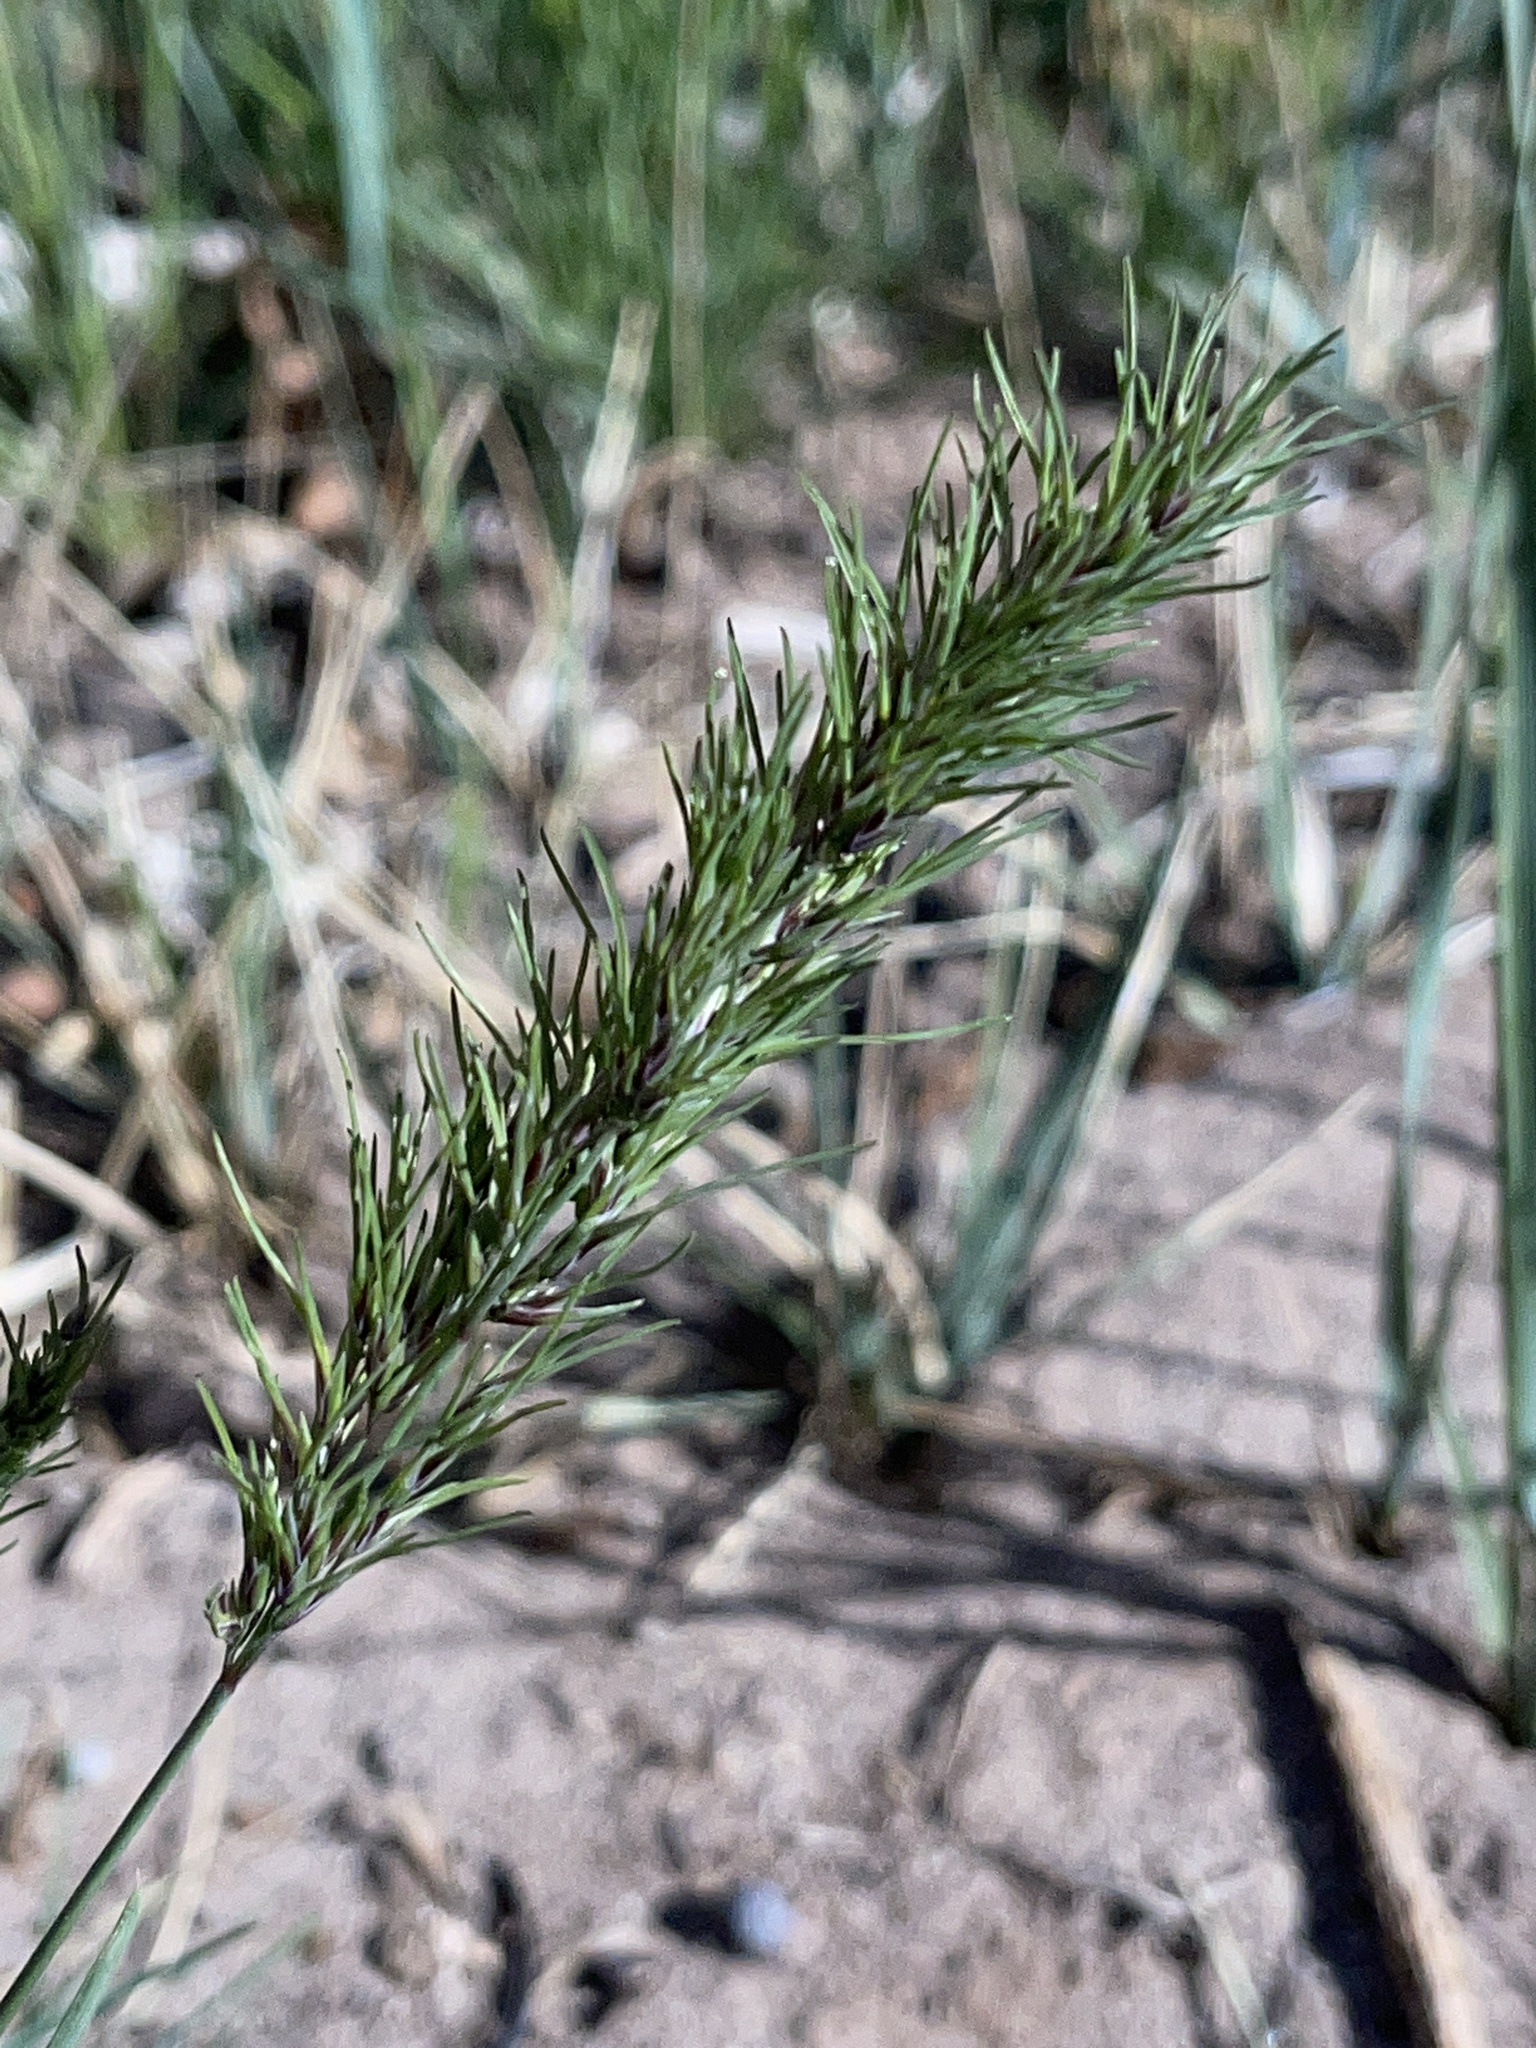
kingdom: Plantae
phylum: Tracheophyta
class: Liliopsida
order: Poales
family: Poaceae
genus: Poa
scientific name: Poa bulbosa
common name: Bulbous bluegrass
